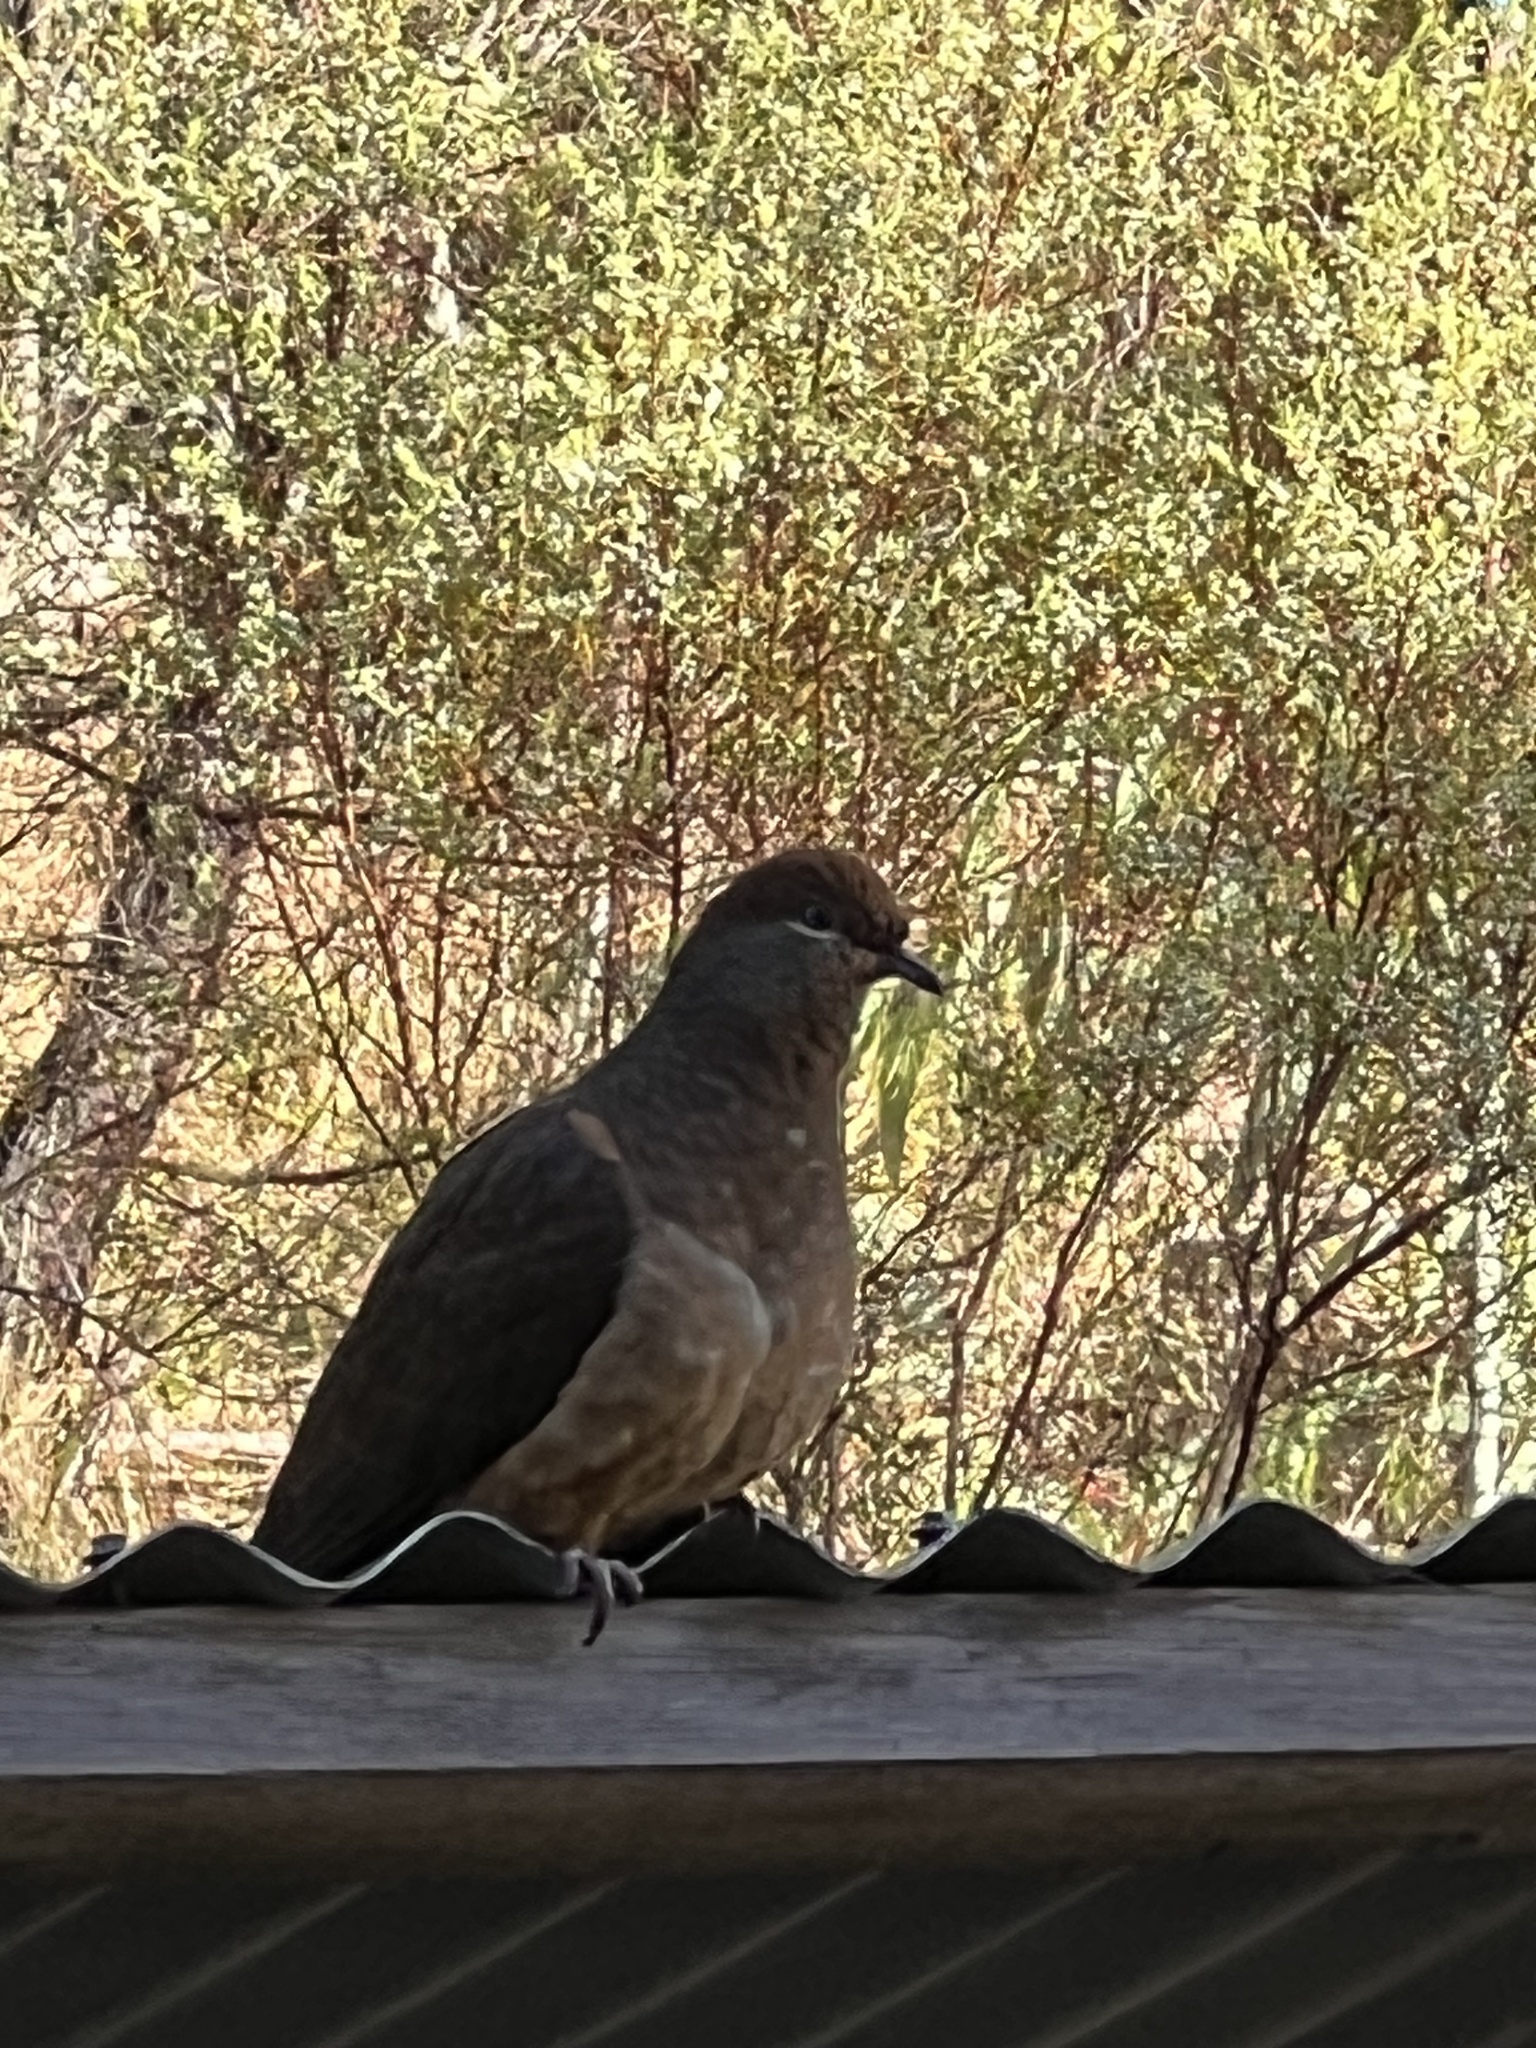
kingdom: Animalia
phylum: Chordata
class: Aves
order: Columbiformes
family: Columbidae
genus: Macropygia
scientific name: Macropygia phasianella
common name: Brown cuckoo-dove
